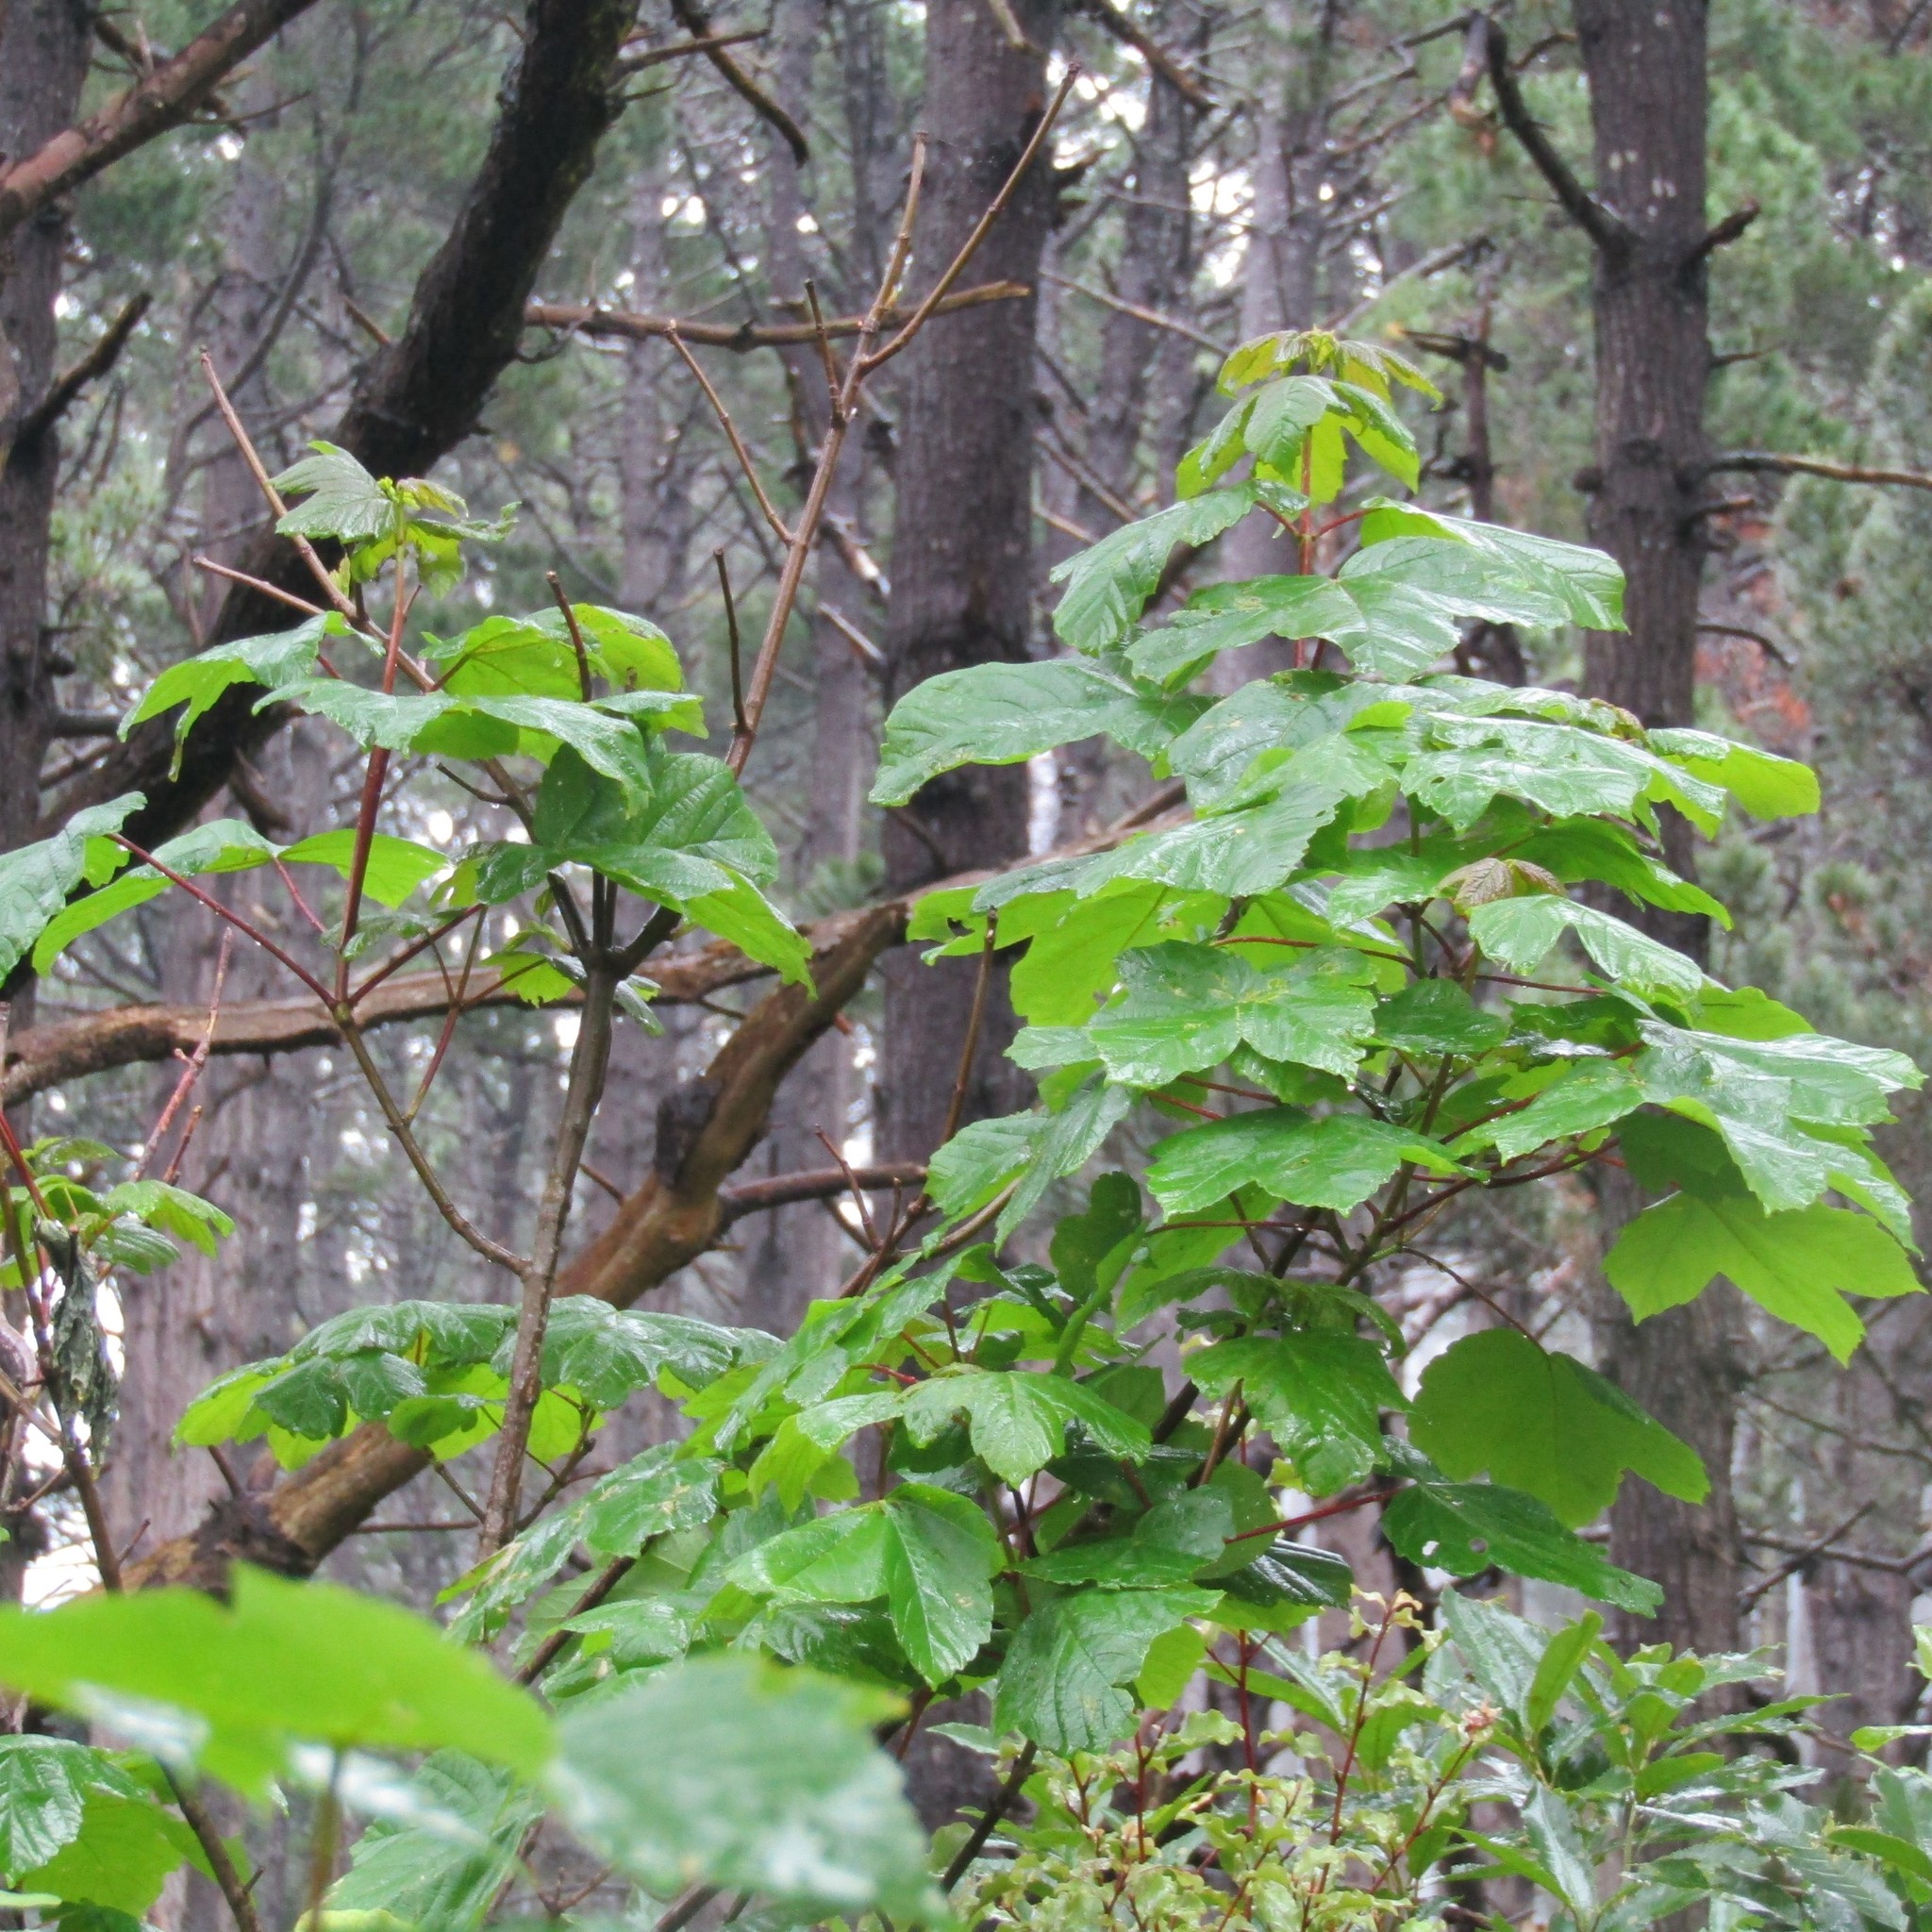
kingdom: Plantae
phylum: Tracheophyta
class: Magnoliopsida
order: Sapindales
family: Sapindaceae
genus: Acer
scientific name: Acer pseudoplatanus
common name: Sycamore
